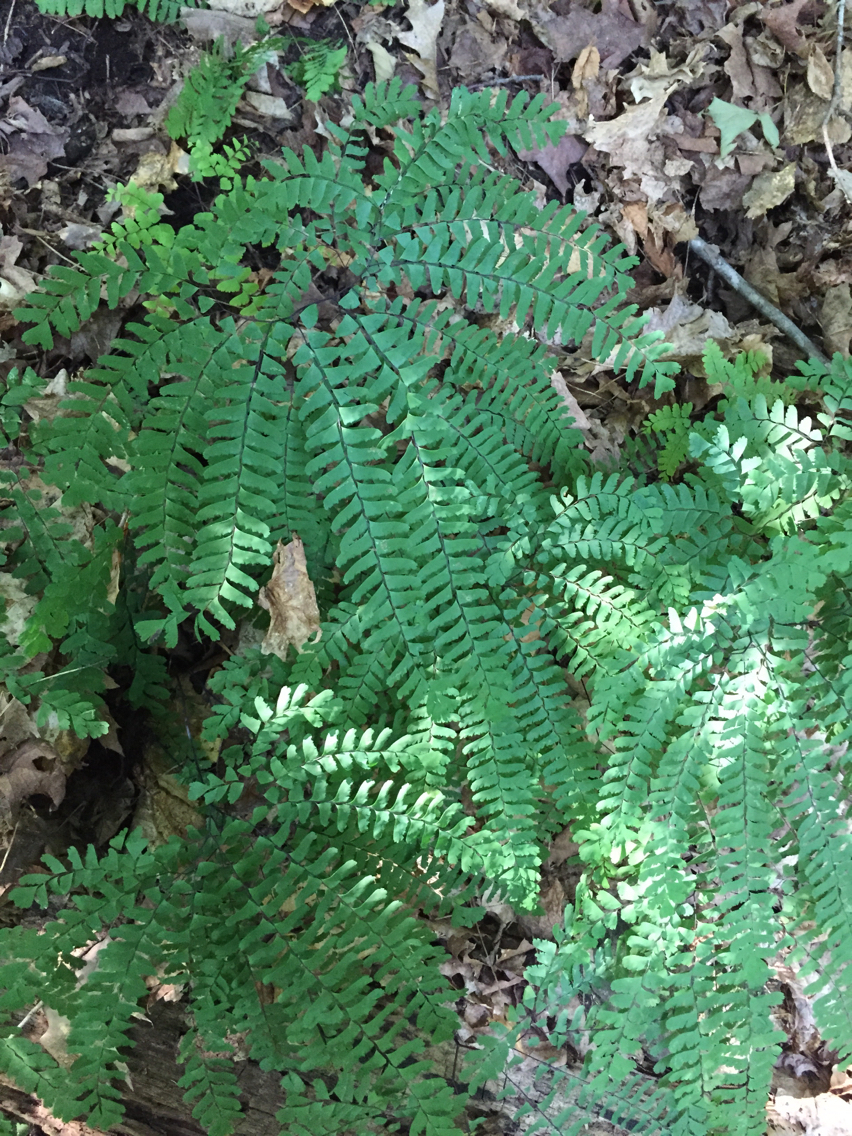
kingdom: Plantae
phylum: Tracheophyta
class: Polypodiopsida
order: Polypodiales
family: Pteridaceae
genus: Adiantum
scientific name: Adiantum pedatum
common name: Five-finger fern
